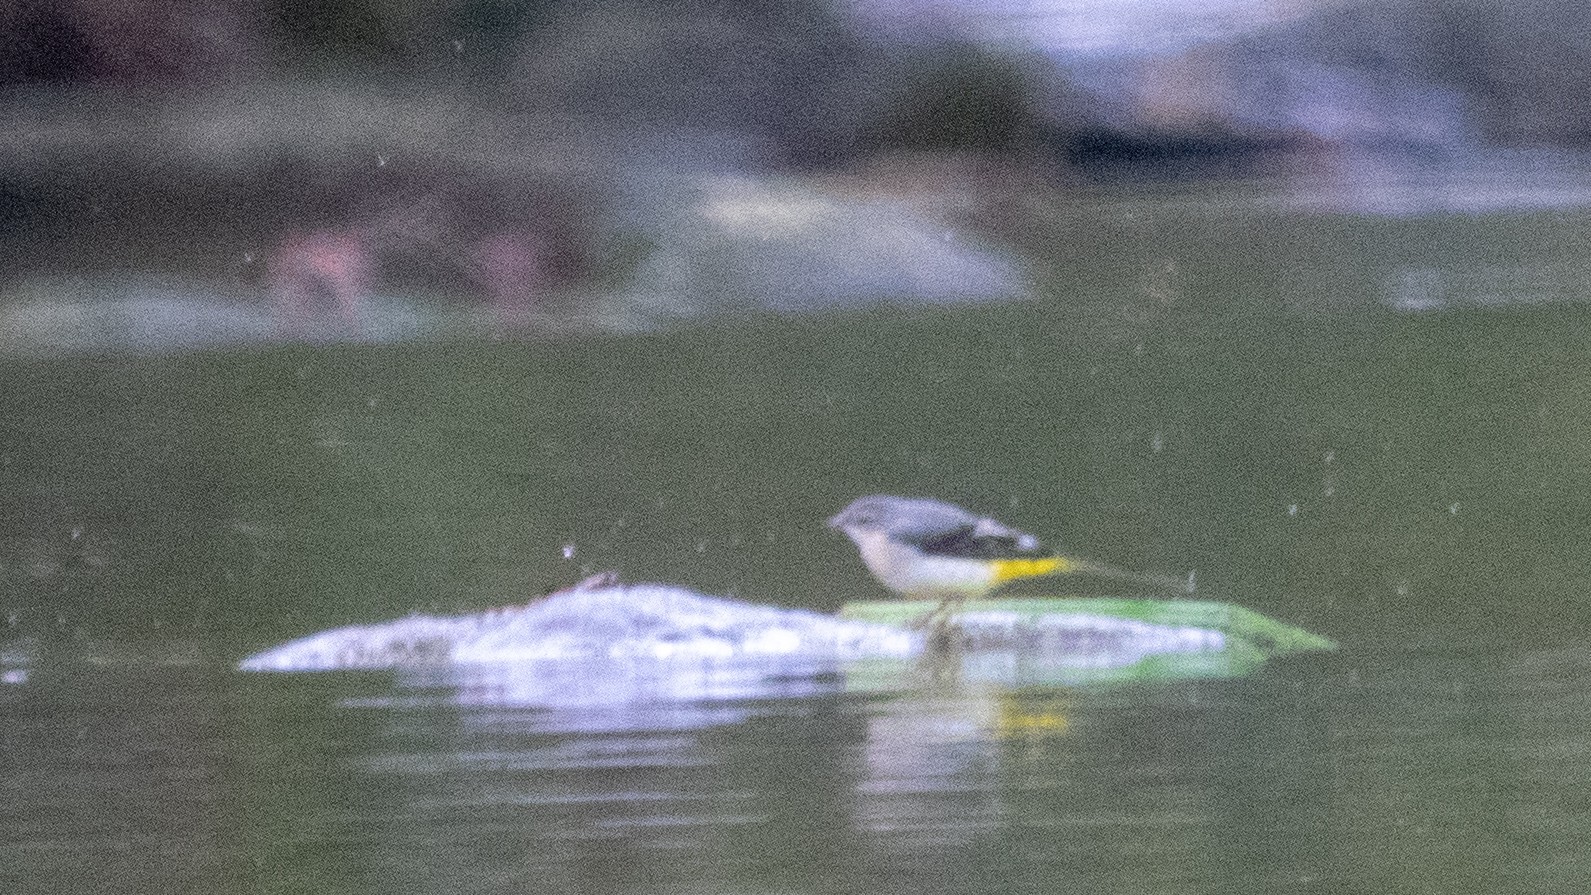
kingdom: Animalia
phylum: Chordata
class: Aves
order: Passeriformes
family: Motacillidae
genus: Motacilla
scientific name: Motacilla cinerea
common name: Grey wagtail
